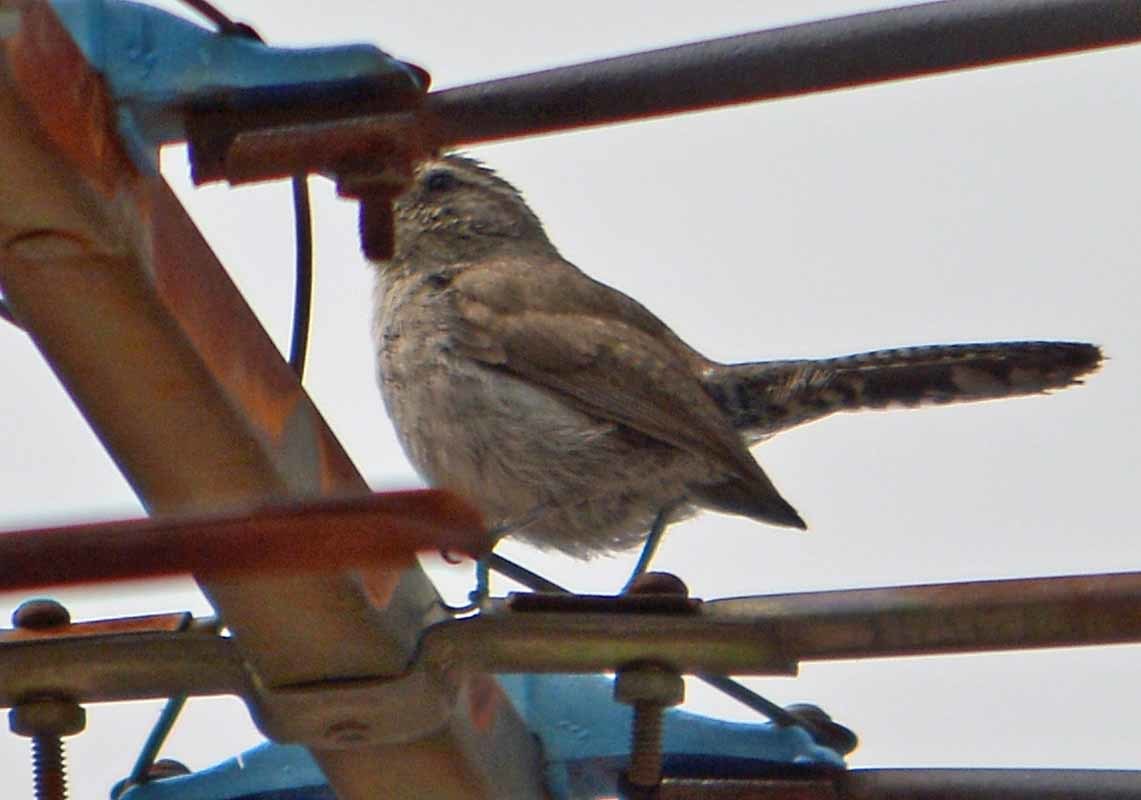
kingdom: Animalia
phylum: Chordata
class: Aves
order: Passeriformes
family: Troglodytidae
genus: Thryomanes
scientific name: Thryomanes bewickii
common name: Bewick's wren
